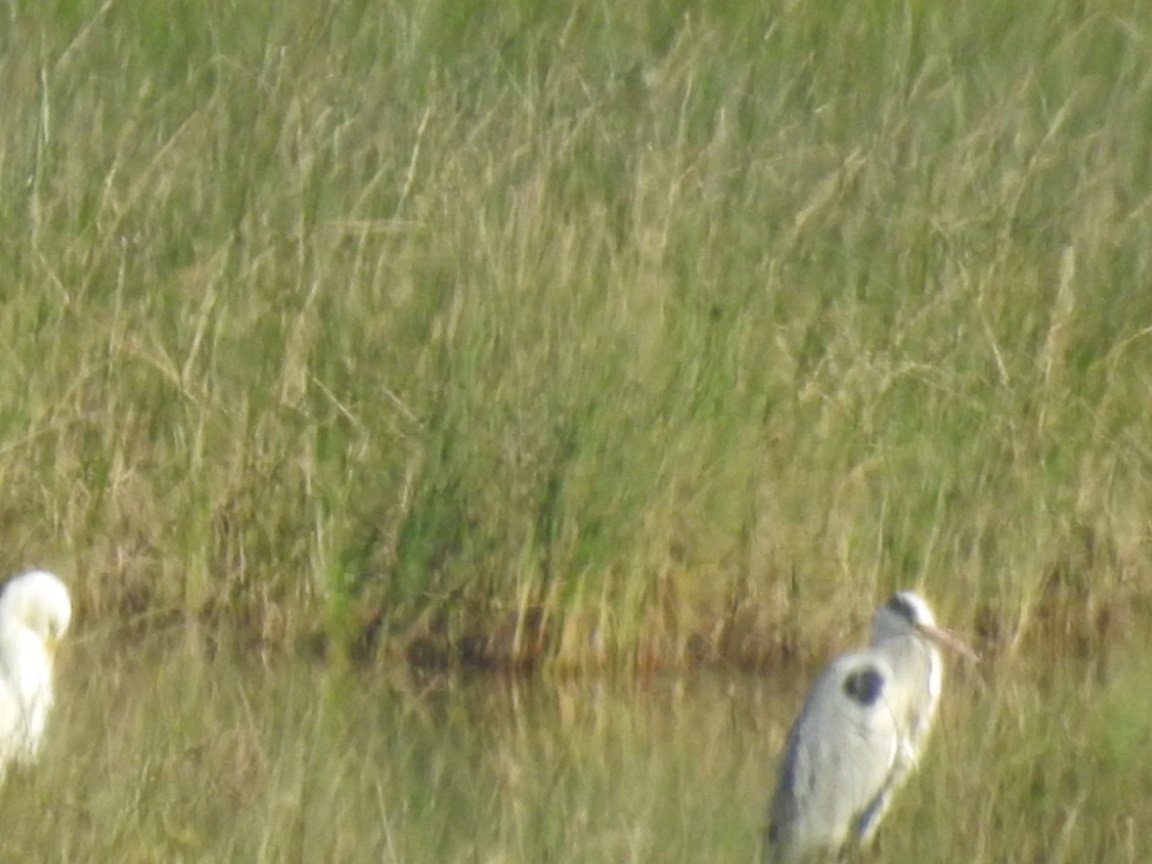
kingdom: Animalia
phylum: Chordata
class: Aves
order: Pelecaniformes
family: Ardeidae
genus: Ardea
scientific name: Ardea cinerea
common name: Grey heron
